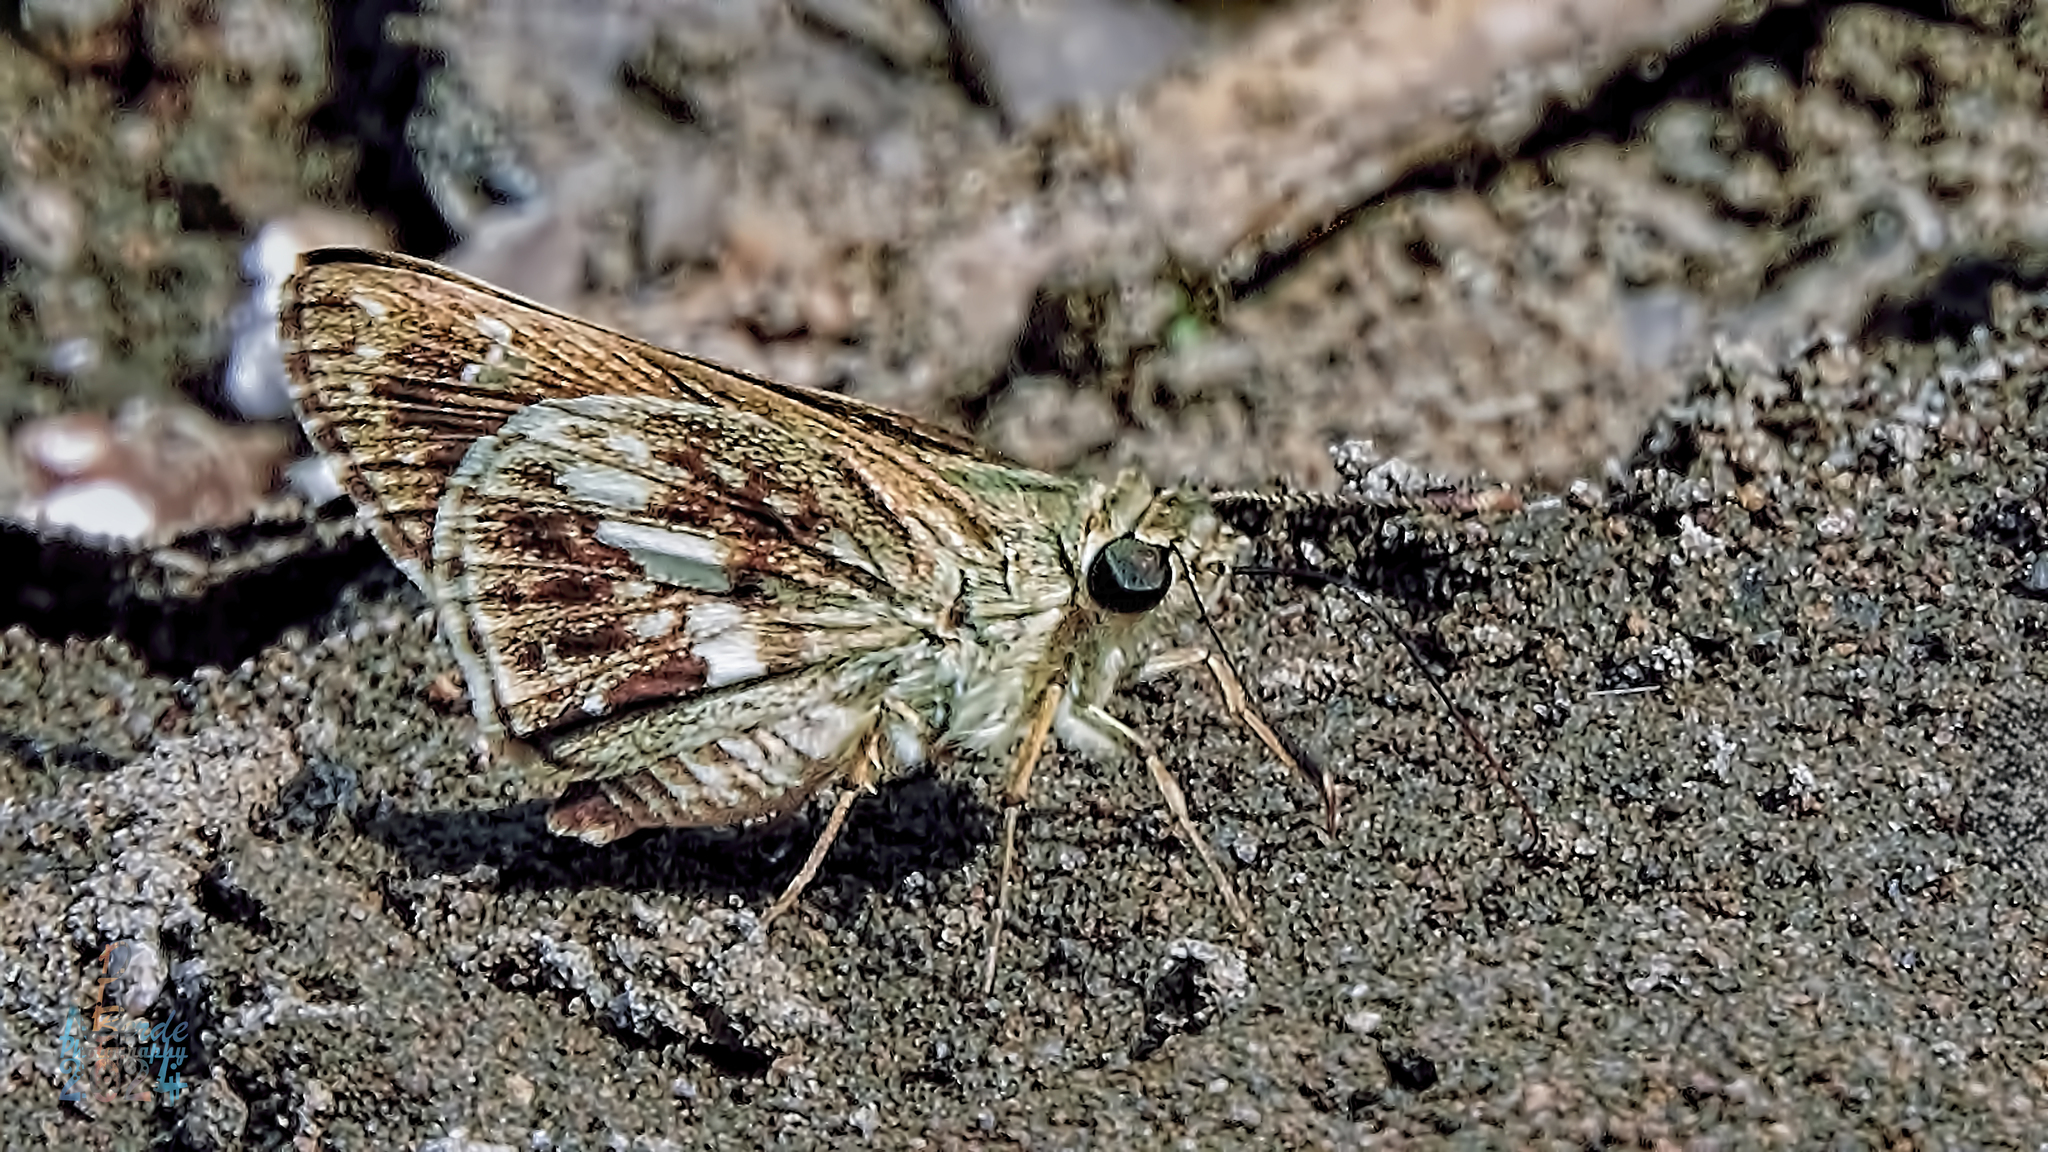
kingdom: Animalia
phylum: Arthropoda
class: Insecta
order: Lepidoptera
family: Hesperiidae
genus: Halpe
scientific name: Halpe porus
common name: Moore's ace
